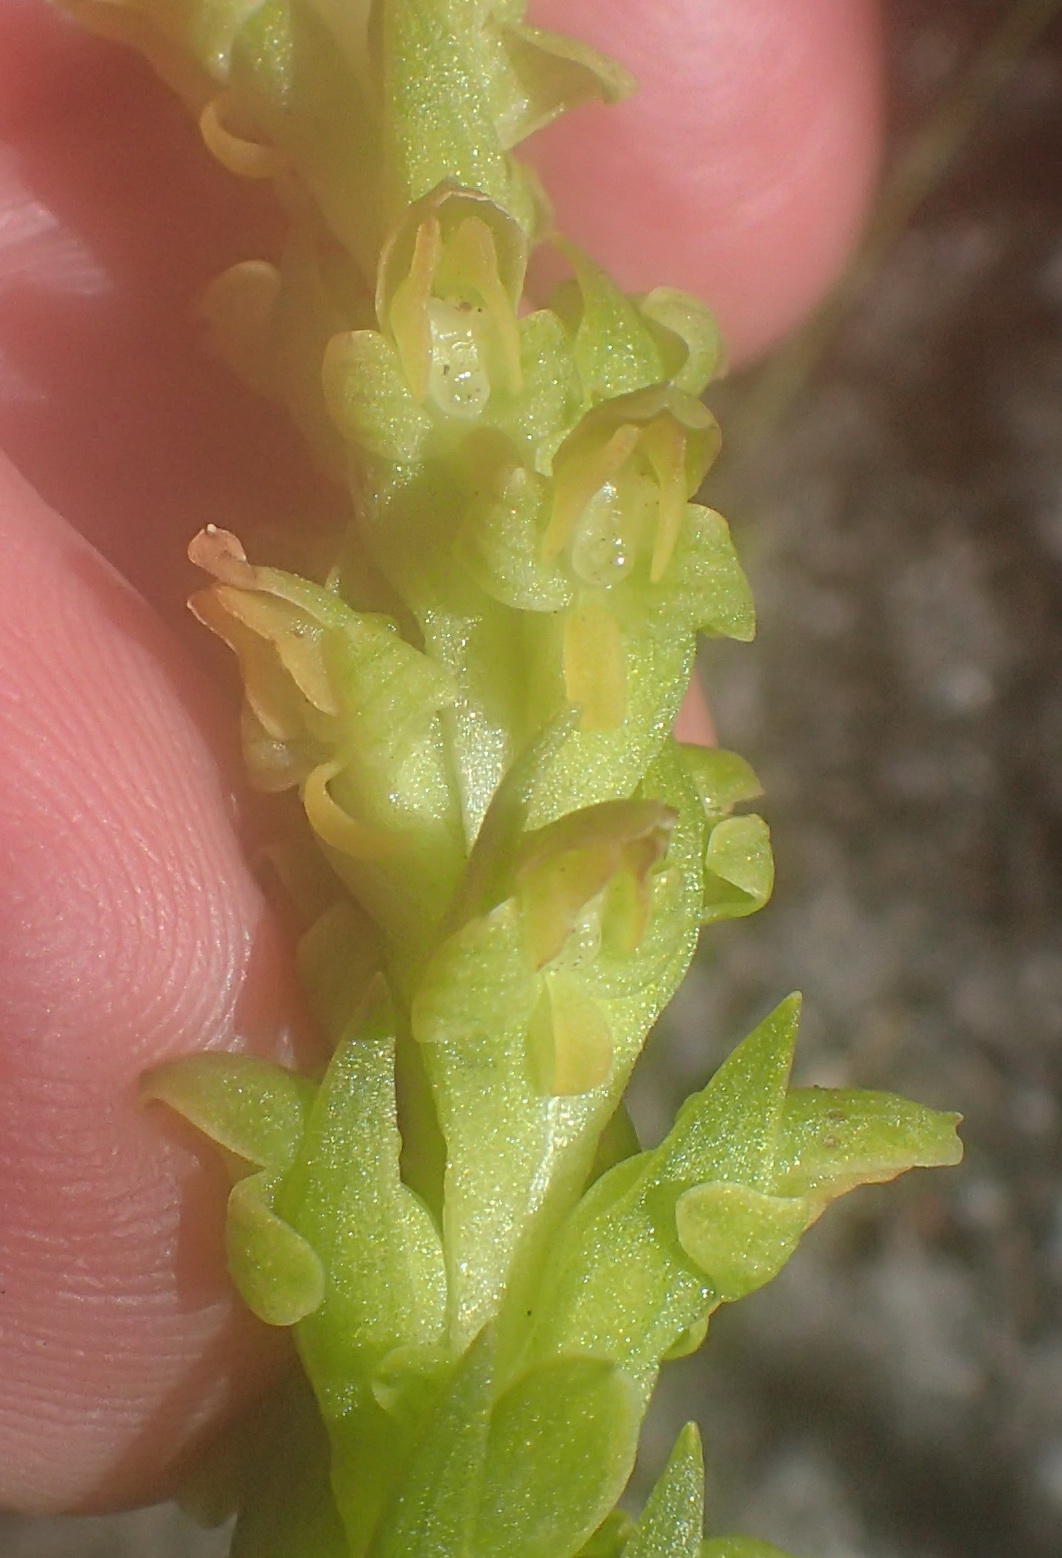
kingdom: Plantae
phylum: Tracheophyta
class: Liliopsida
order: Asparagales
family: Orchidaceae
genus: Disa
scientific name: Disa cylindrica
